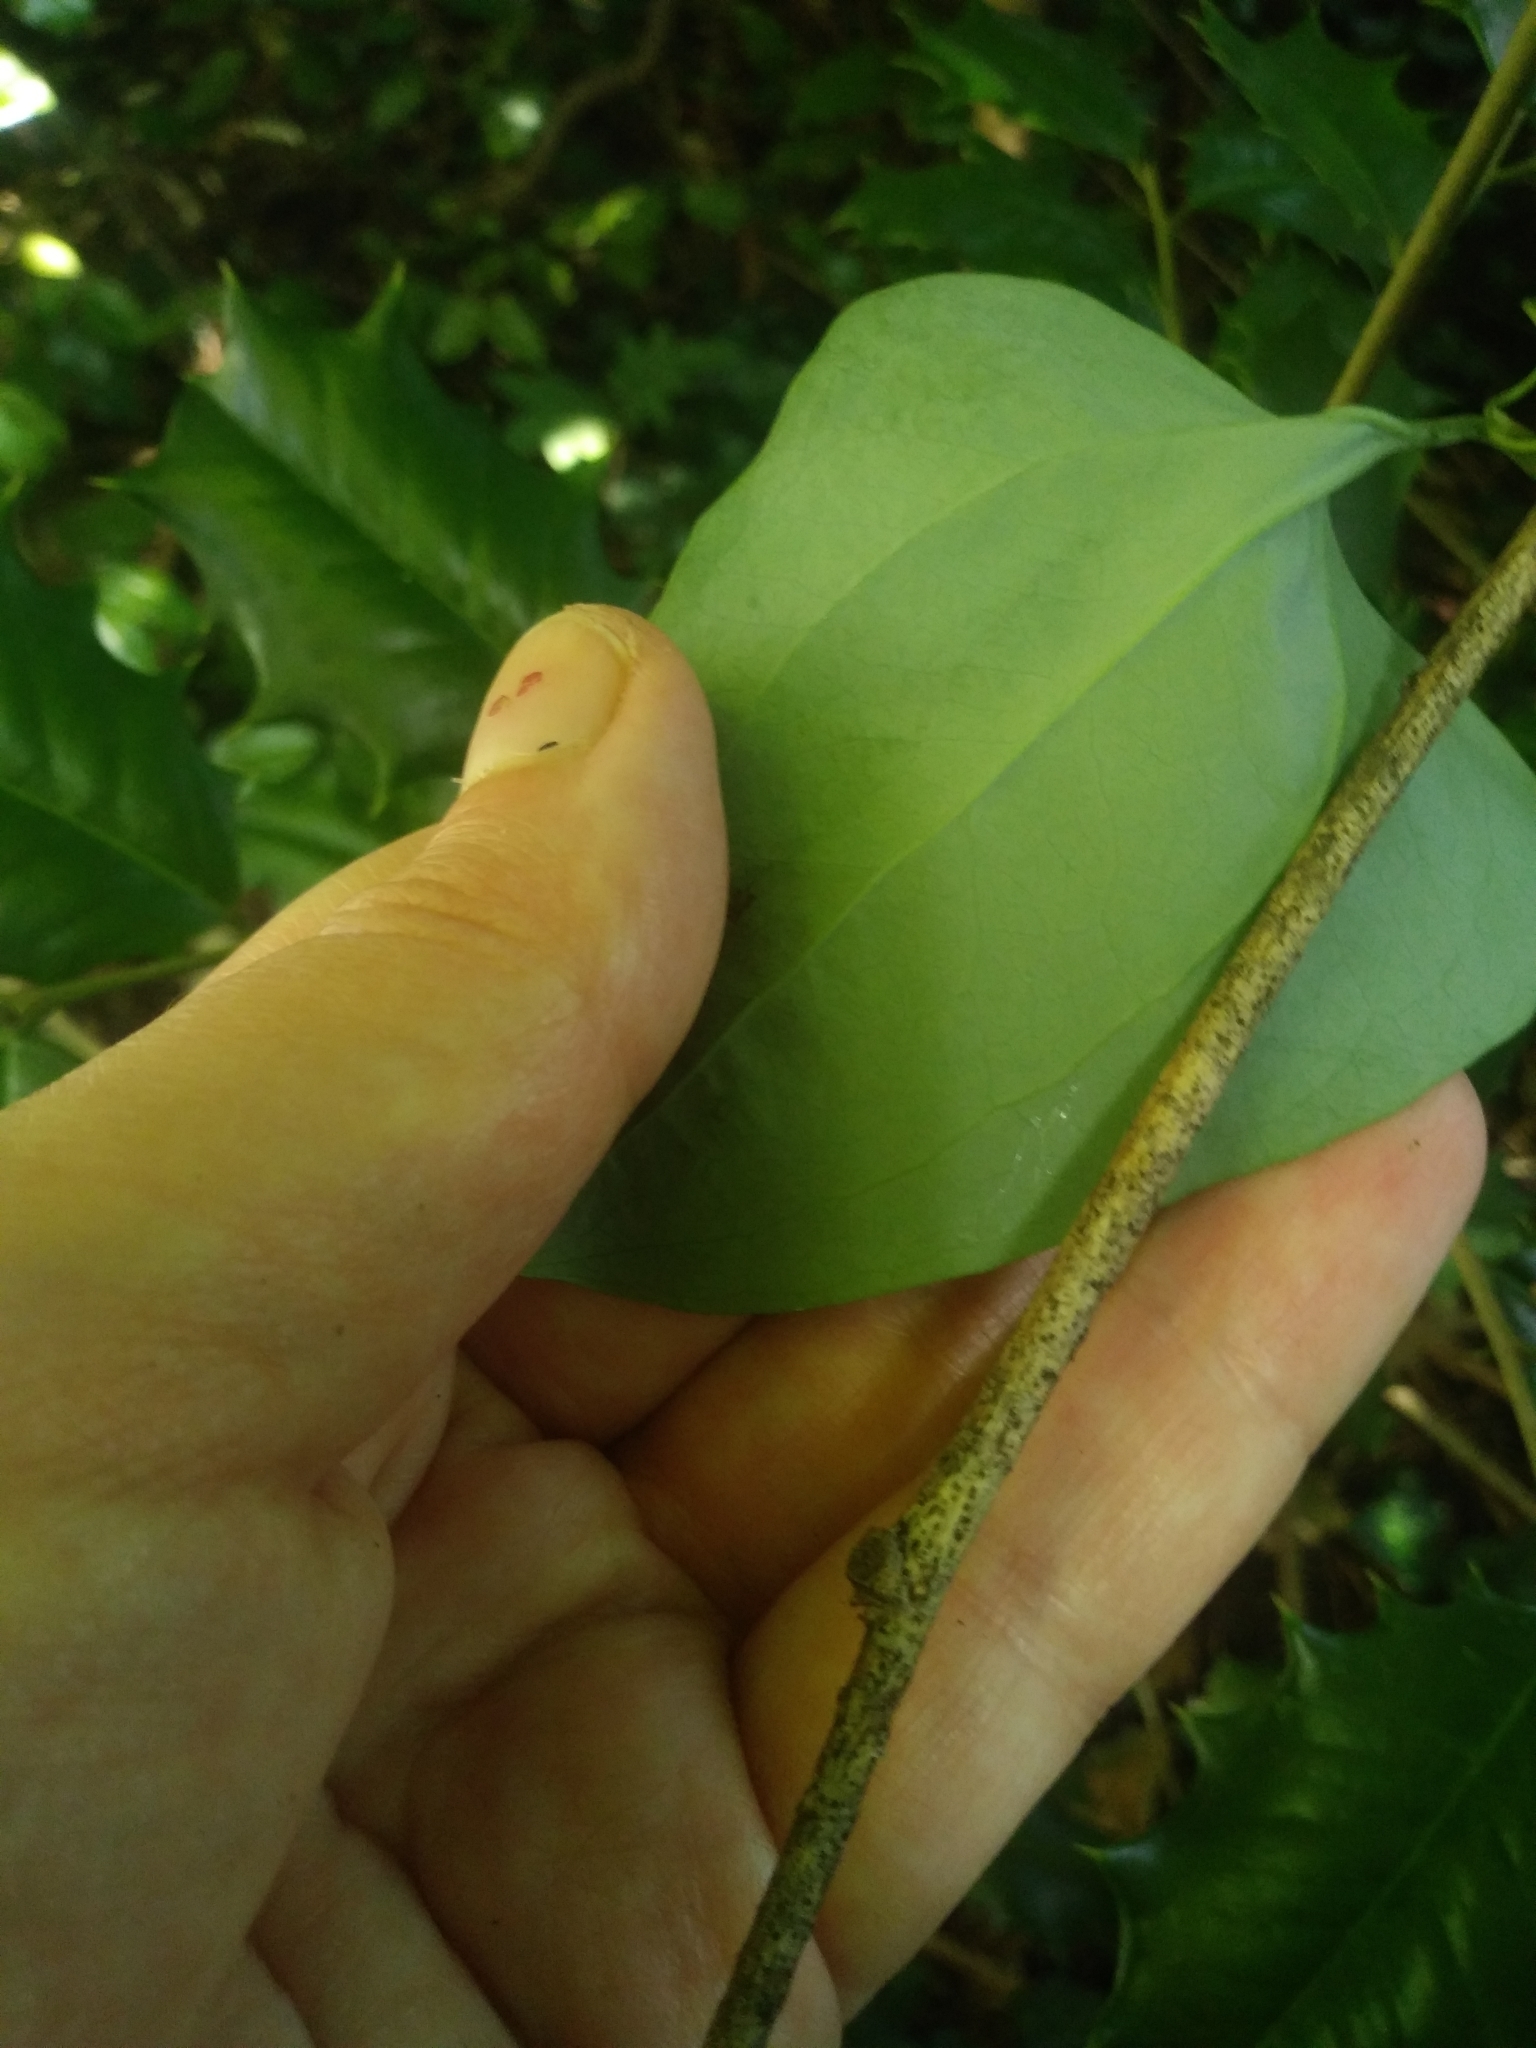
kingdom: Plantae
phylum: Tracheophyta
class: Liliopsida
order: Liliales
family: Smilacaceae
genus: Smilax
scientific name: Smilax glauca
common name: Cat greenbrier
